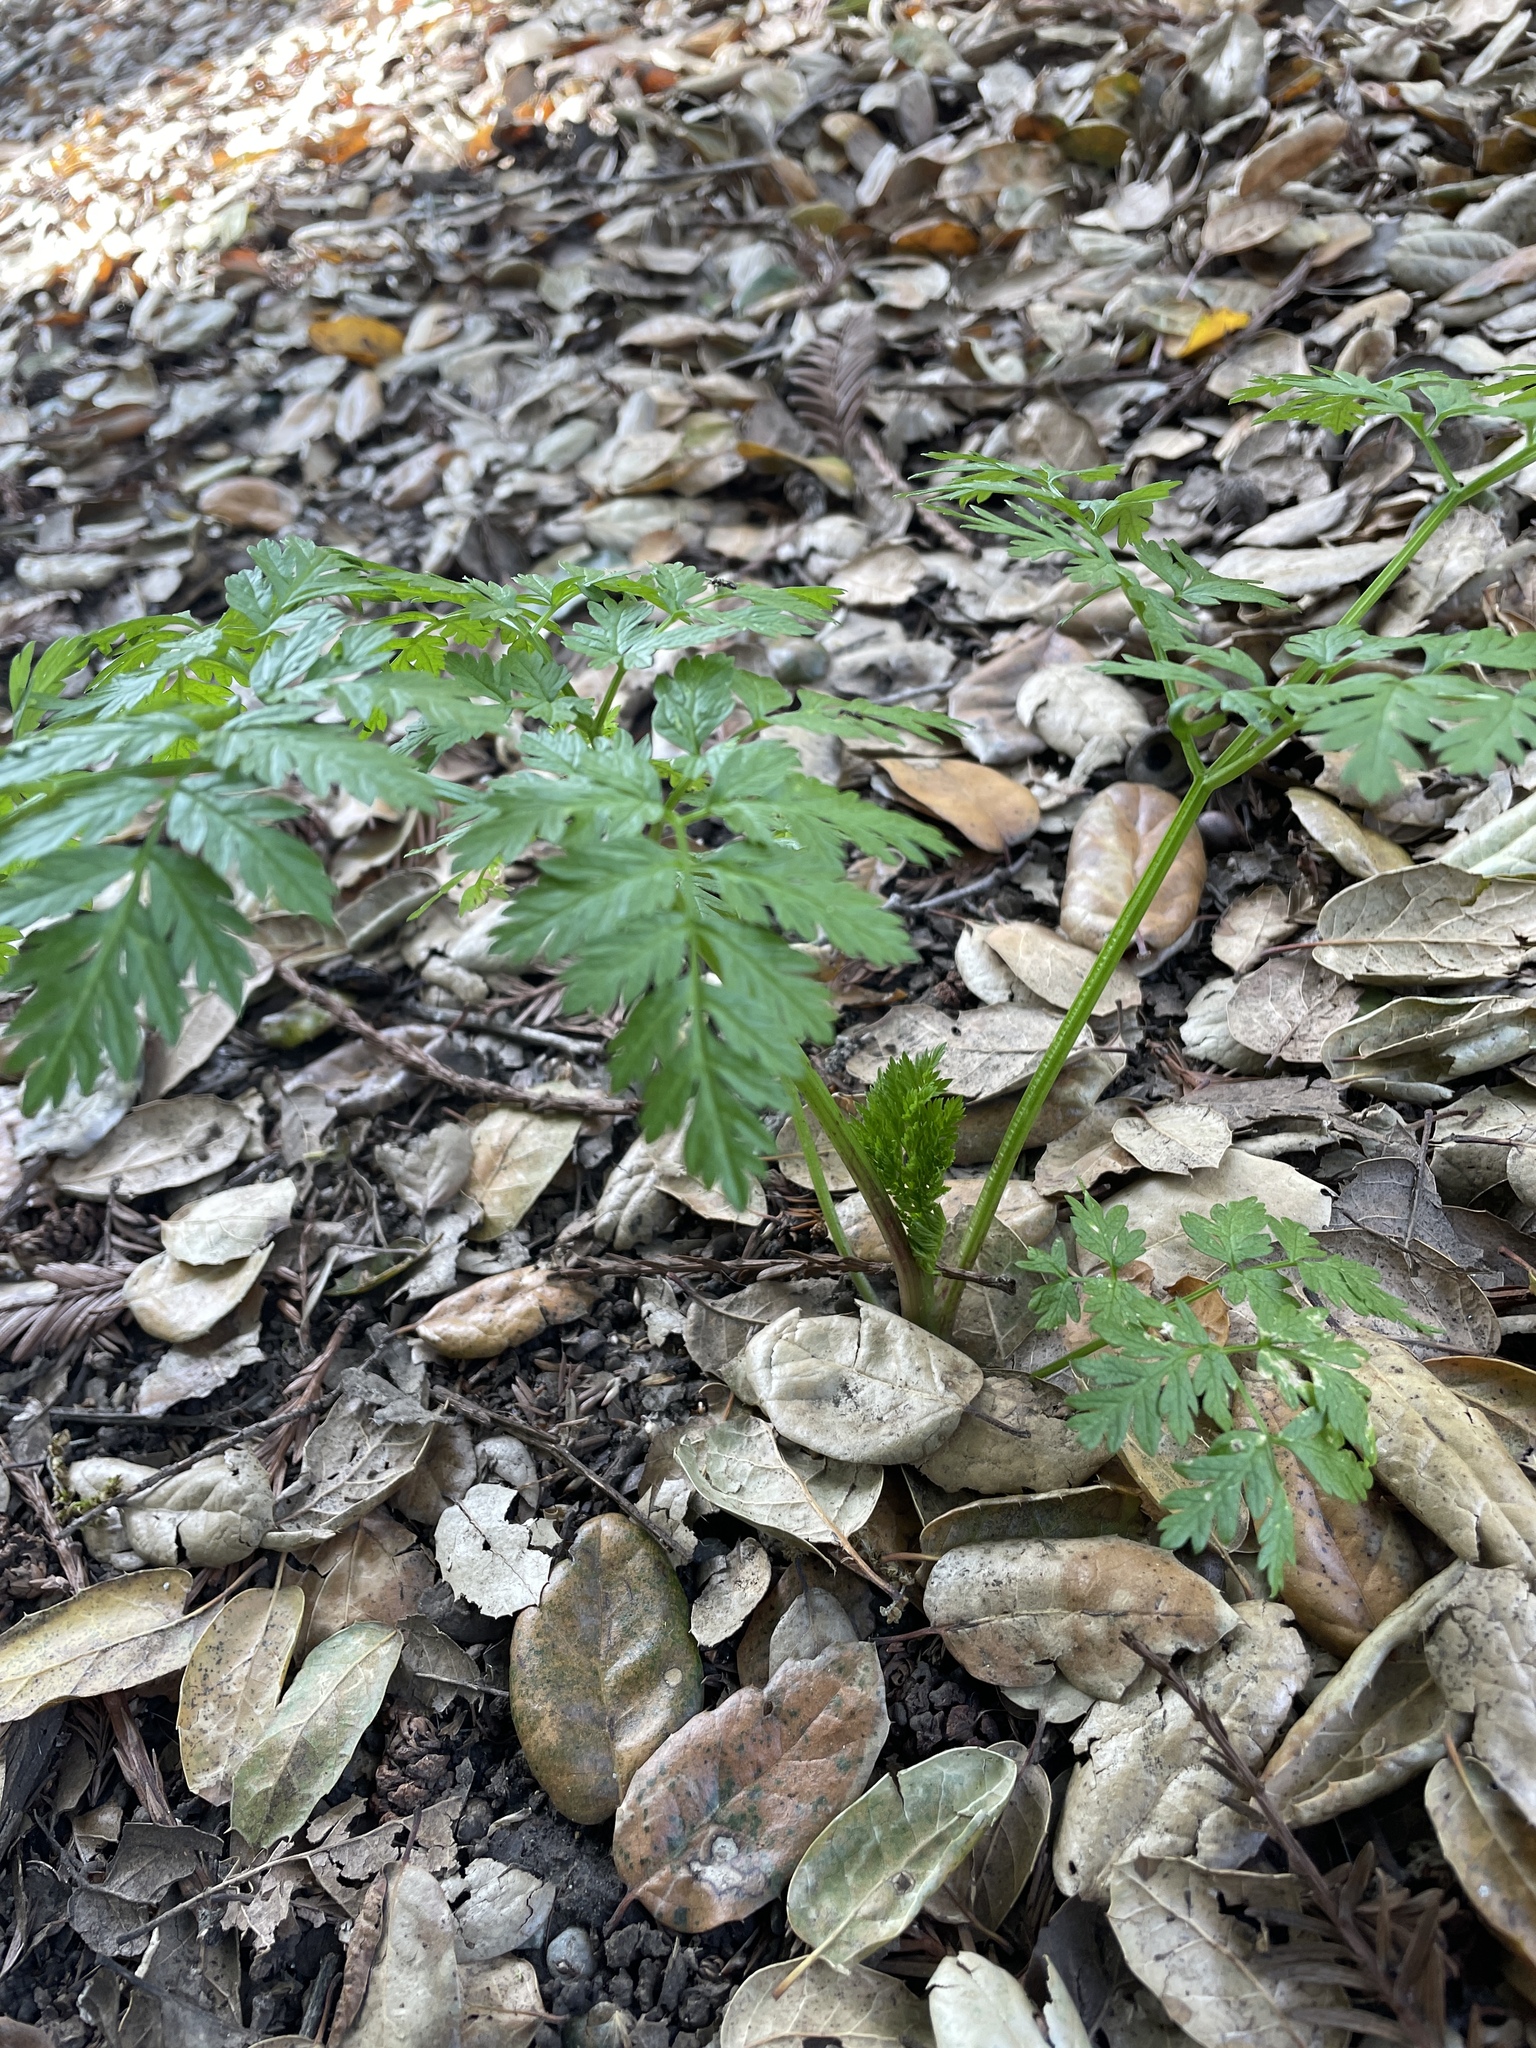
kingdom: Plantae
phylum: Tracheophyta
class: Magnoliopsida
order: Apiales
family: Apiaceae
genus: Conium
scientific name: Conium maculatum
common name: Hemlock
